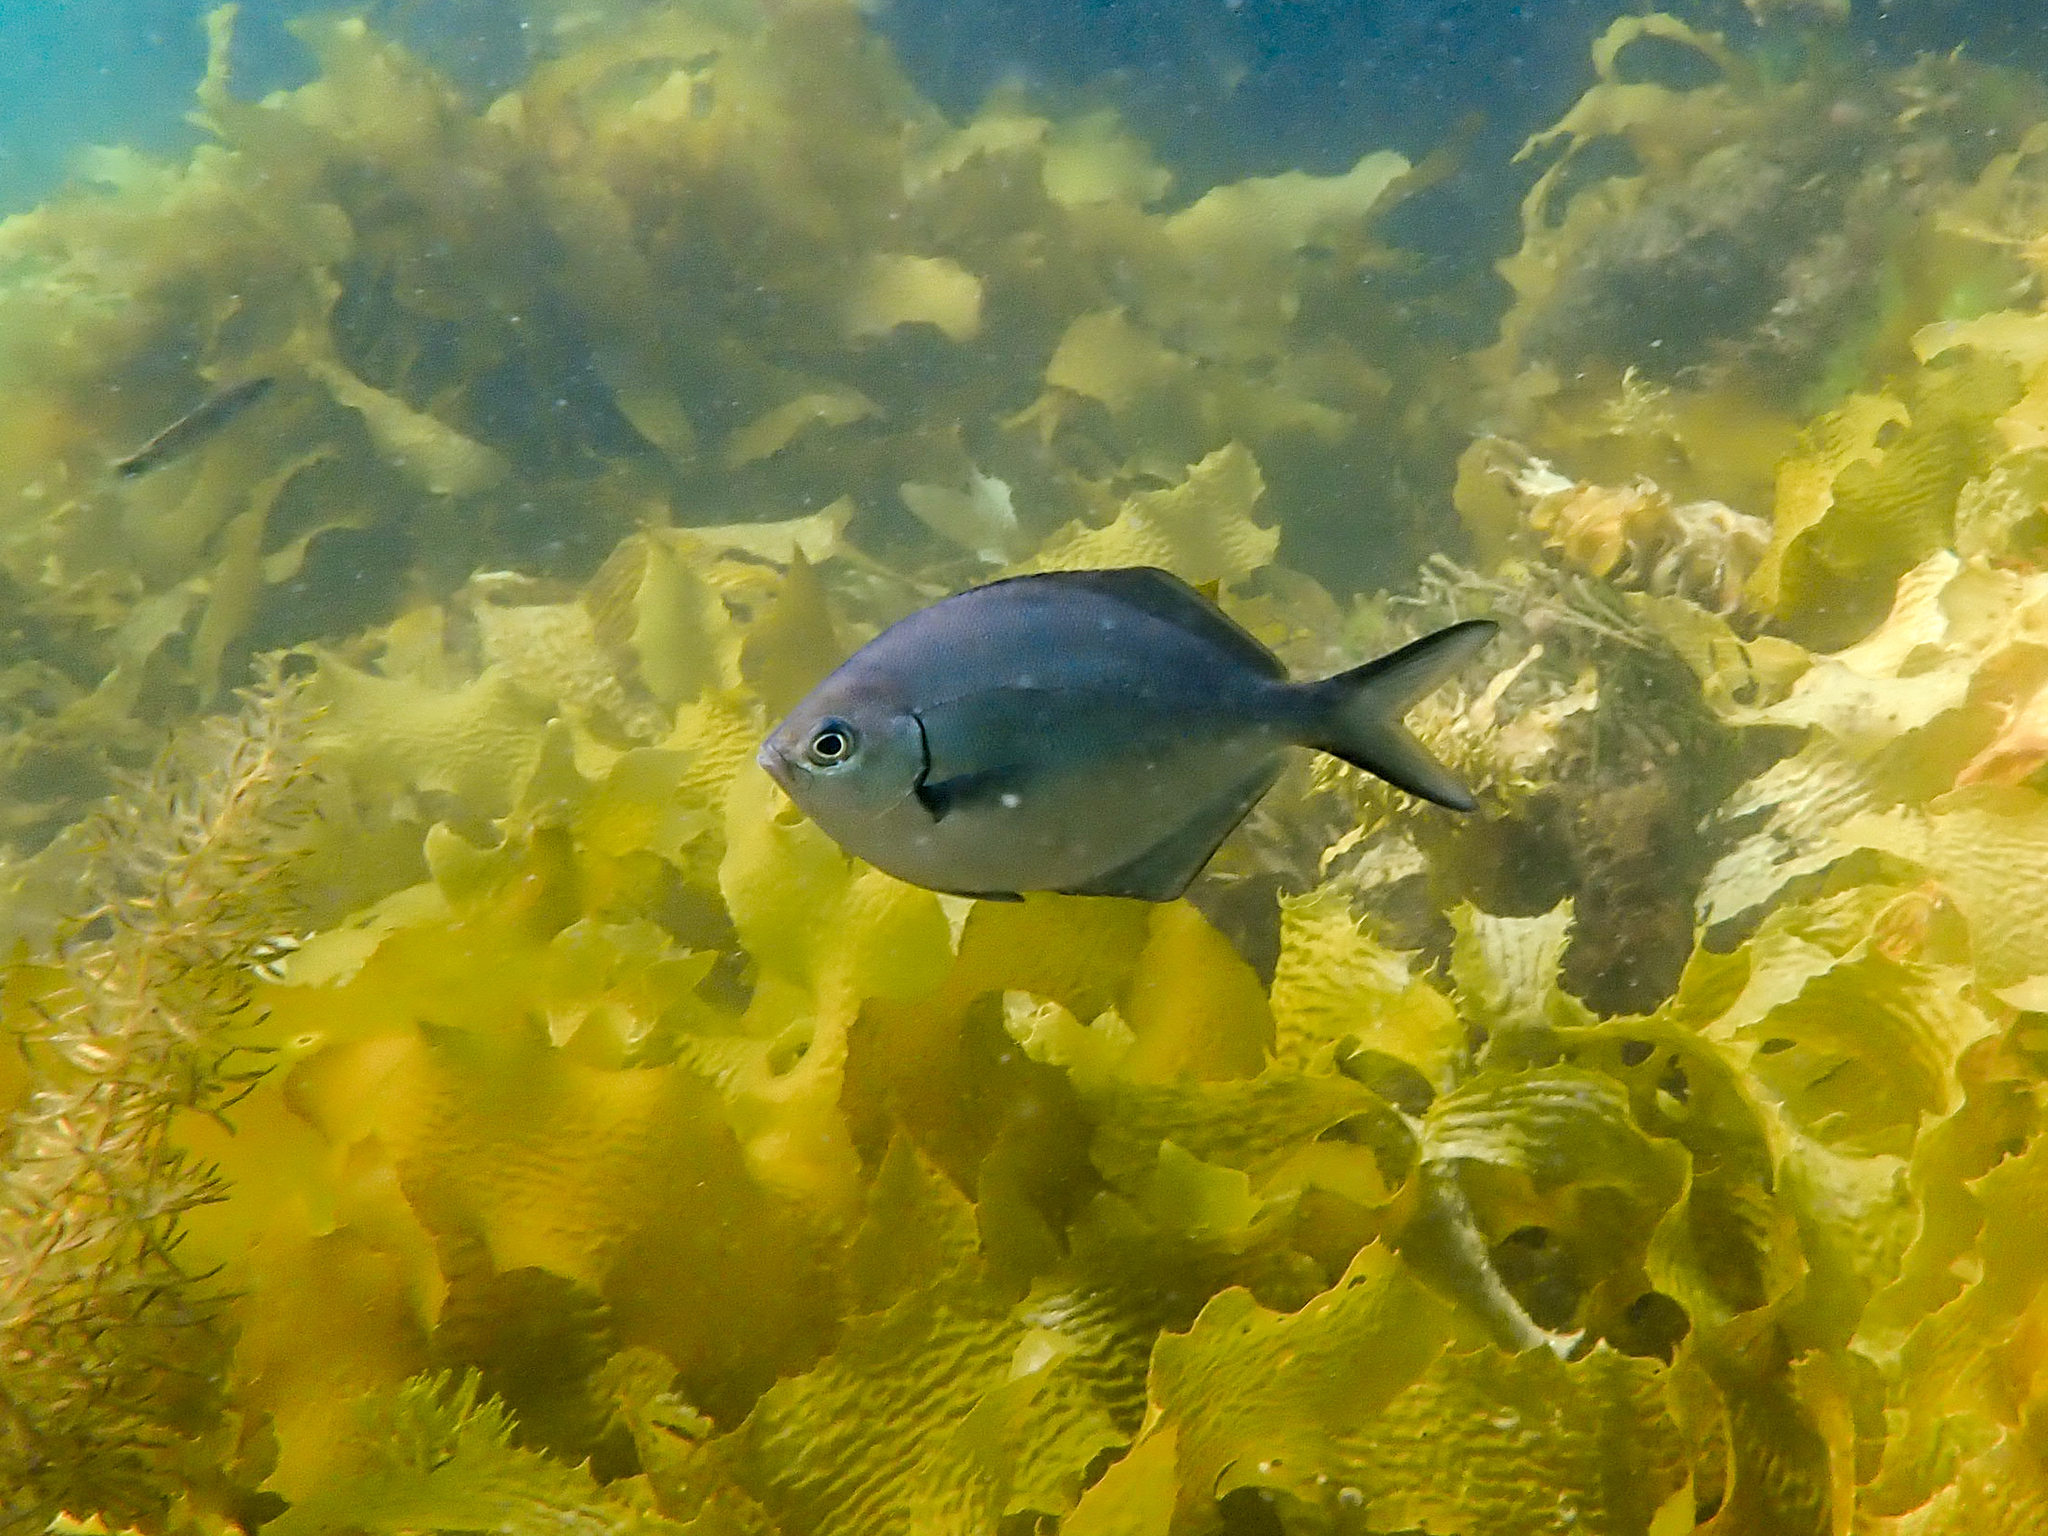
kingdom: Animalia
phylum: Chordata
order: Perciformes
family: Kyphosidae
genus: Scorpis
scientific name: Scorpis lineolata
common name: Sweep
